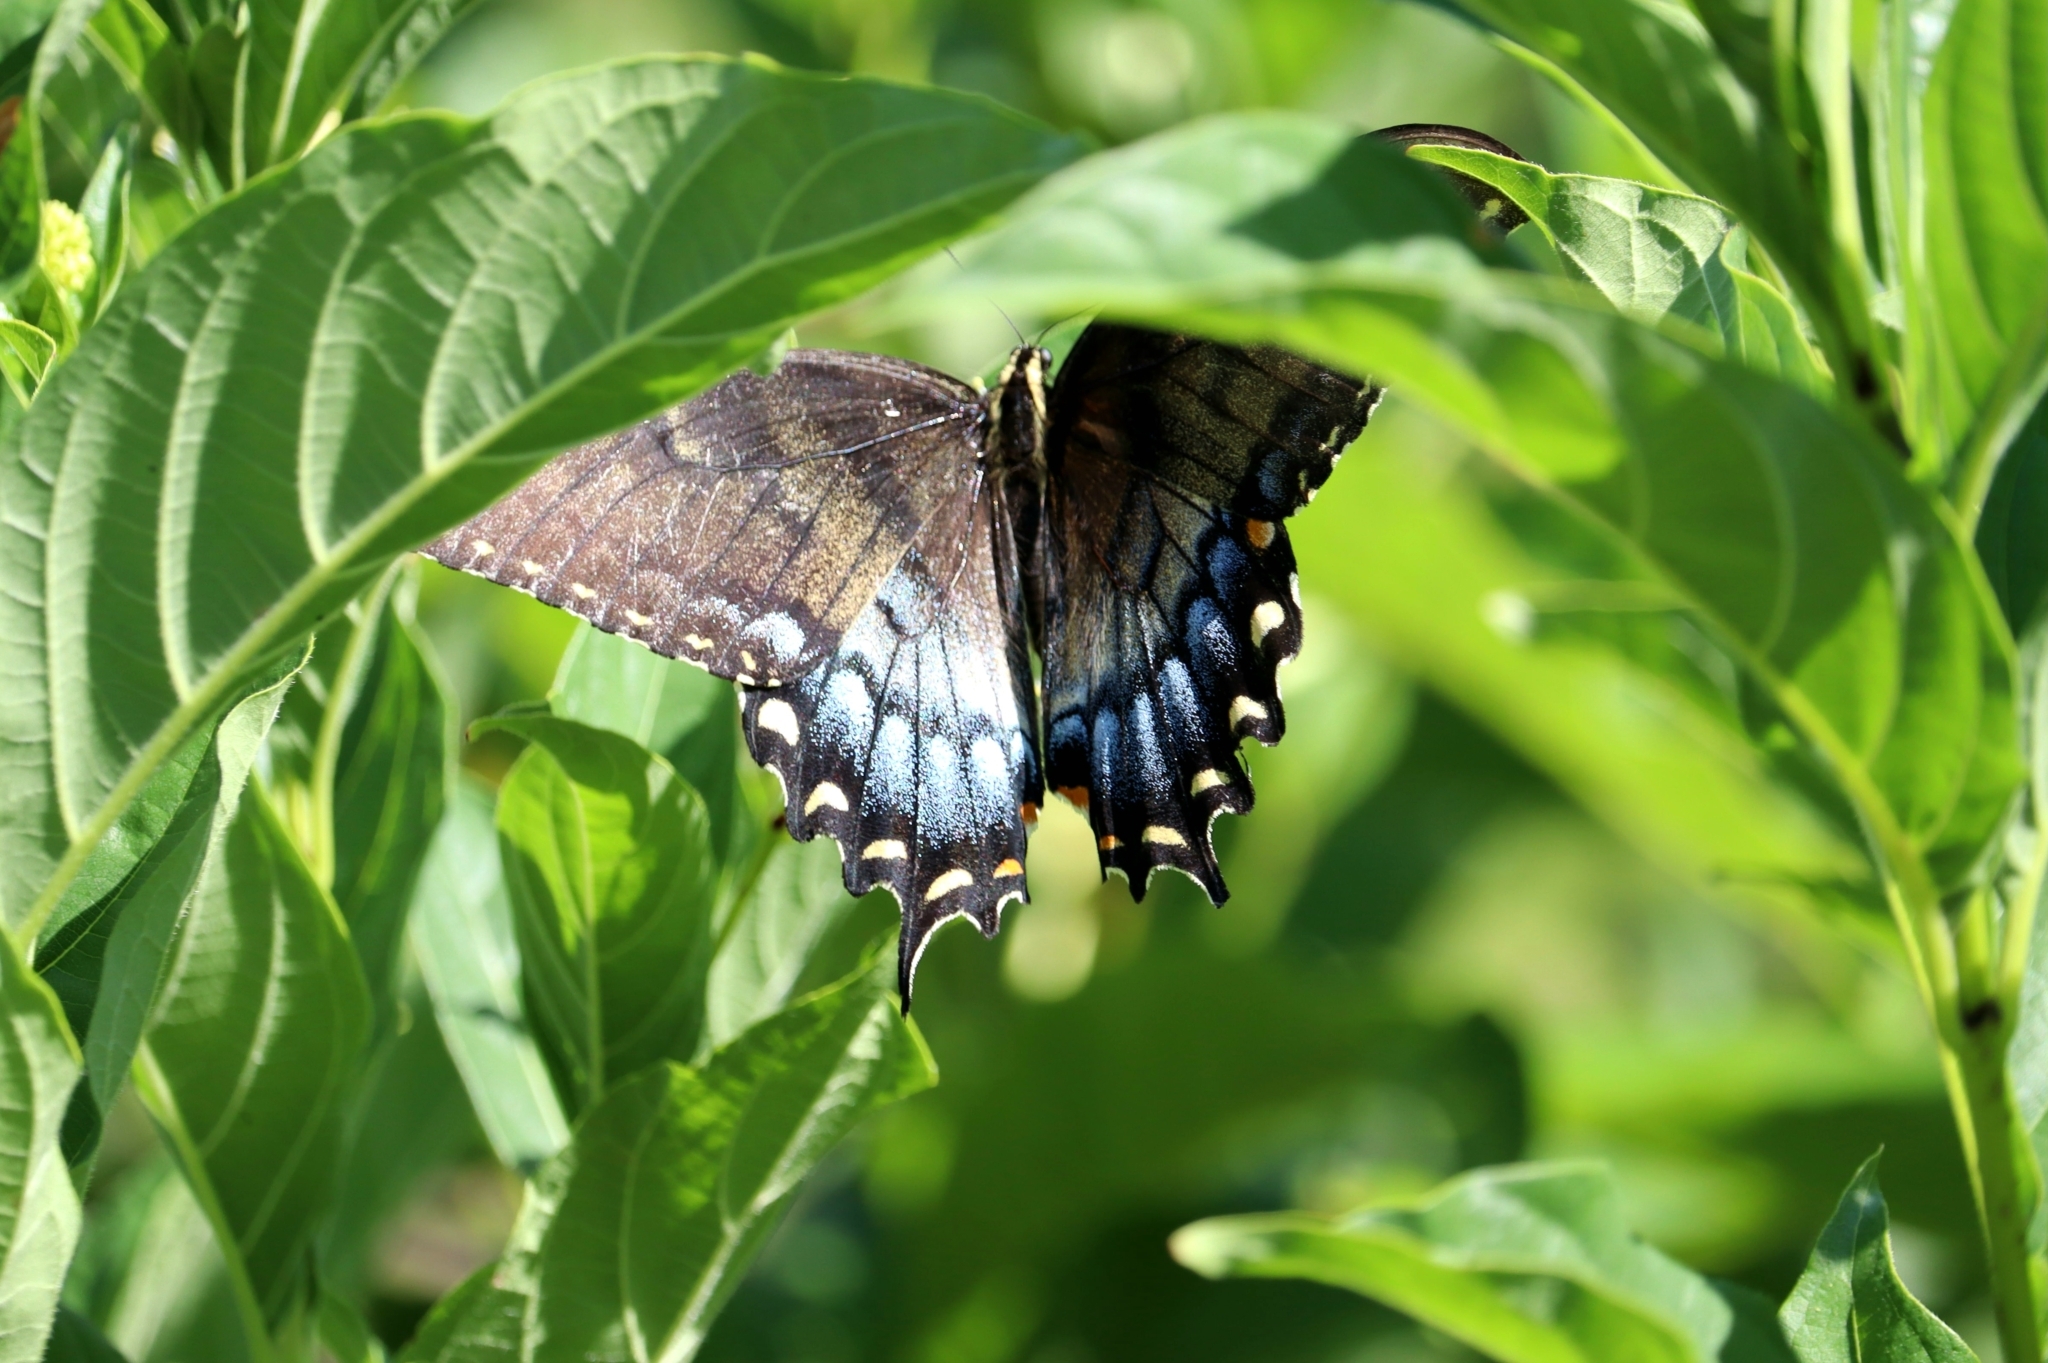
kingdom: Animalia
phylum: Arthropoda
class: Insecta
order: Lepidoptera
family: Papilionidae
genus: Papilio
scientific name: Papilio glaucus
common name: Tiger swallowtail
